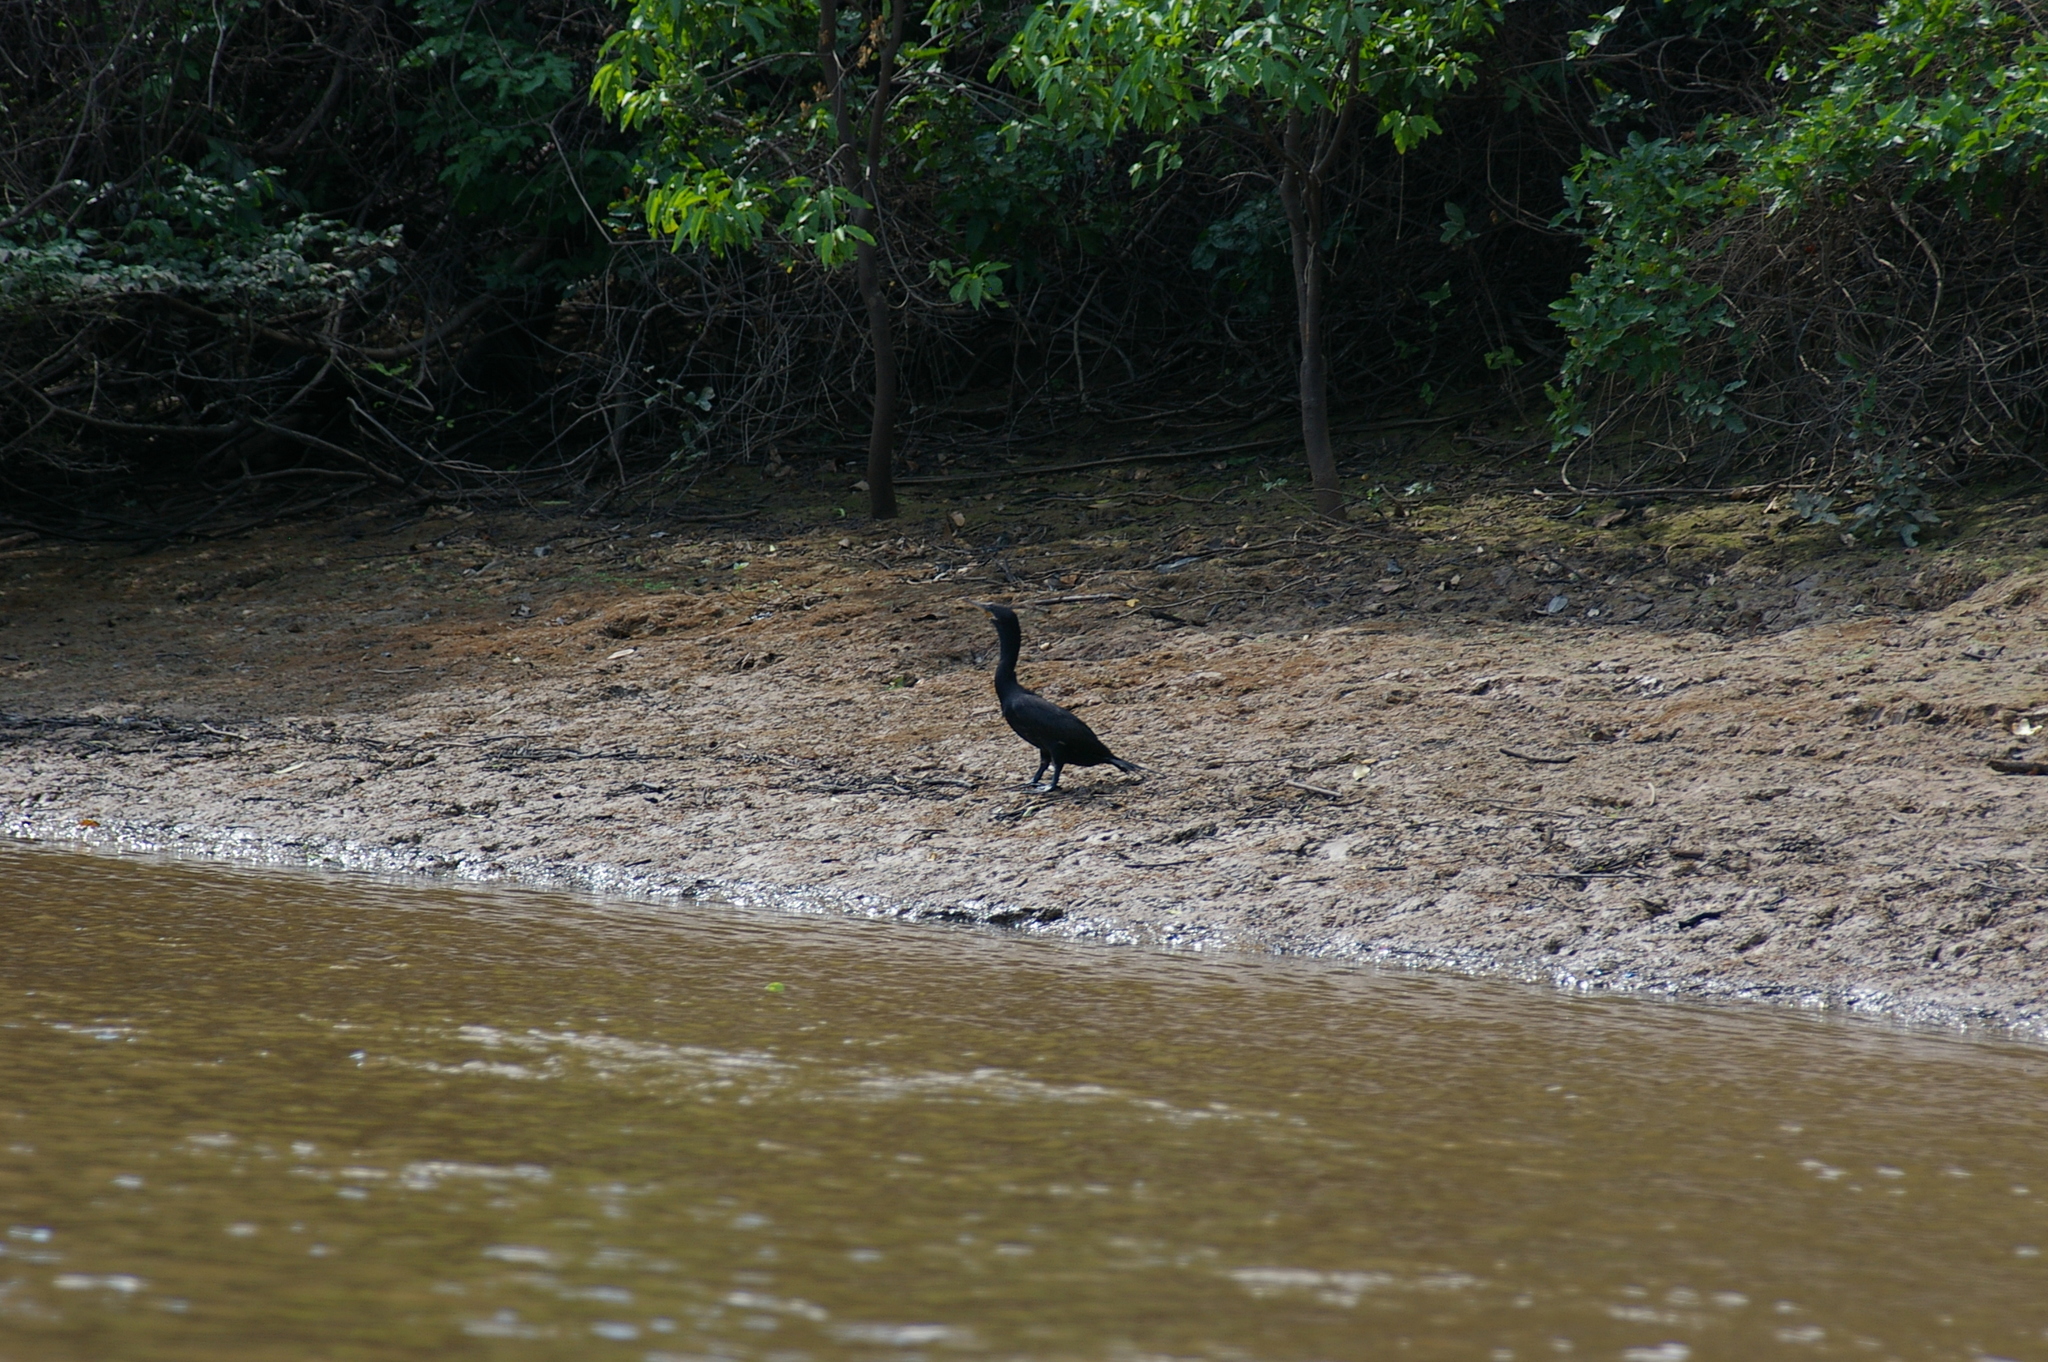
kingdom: Animalia
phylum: Chordata
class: Aves
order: Suliformes
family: Phalacrocoracidae
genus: Phalacrocorax
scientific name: Phalacrocorax brasilianus
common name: Neotropic cormorant
